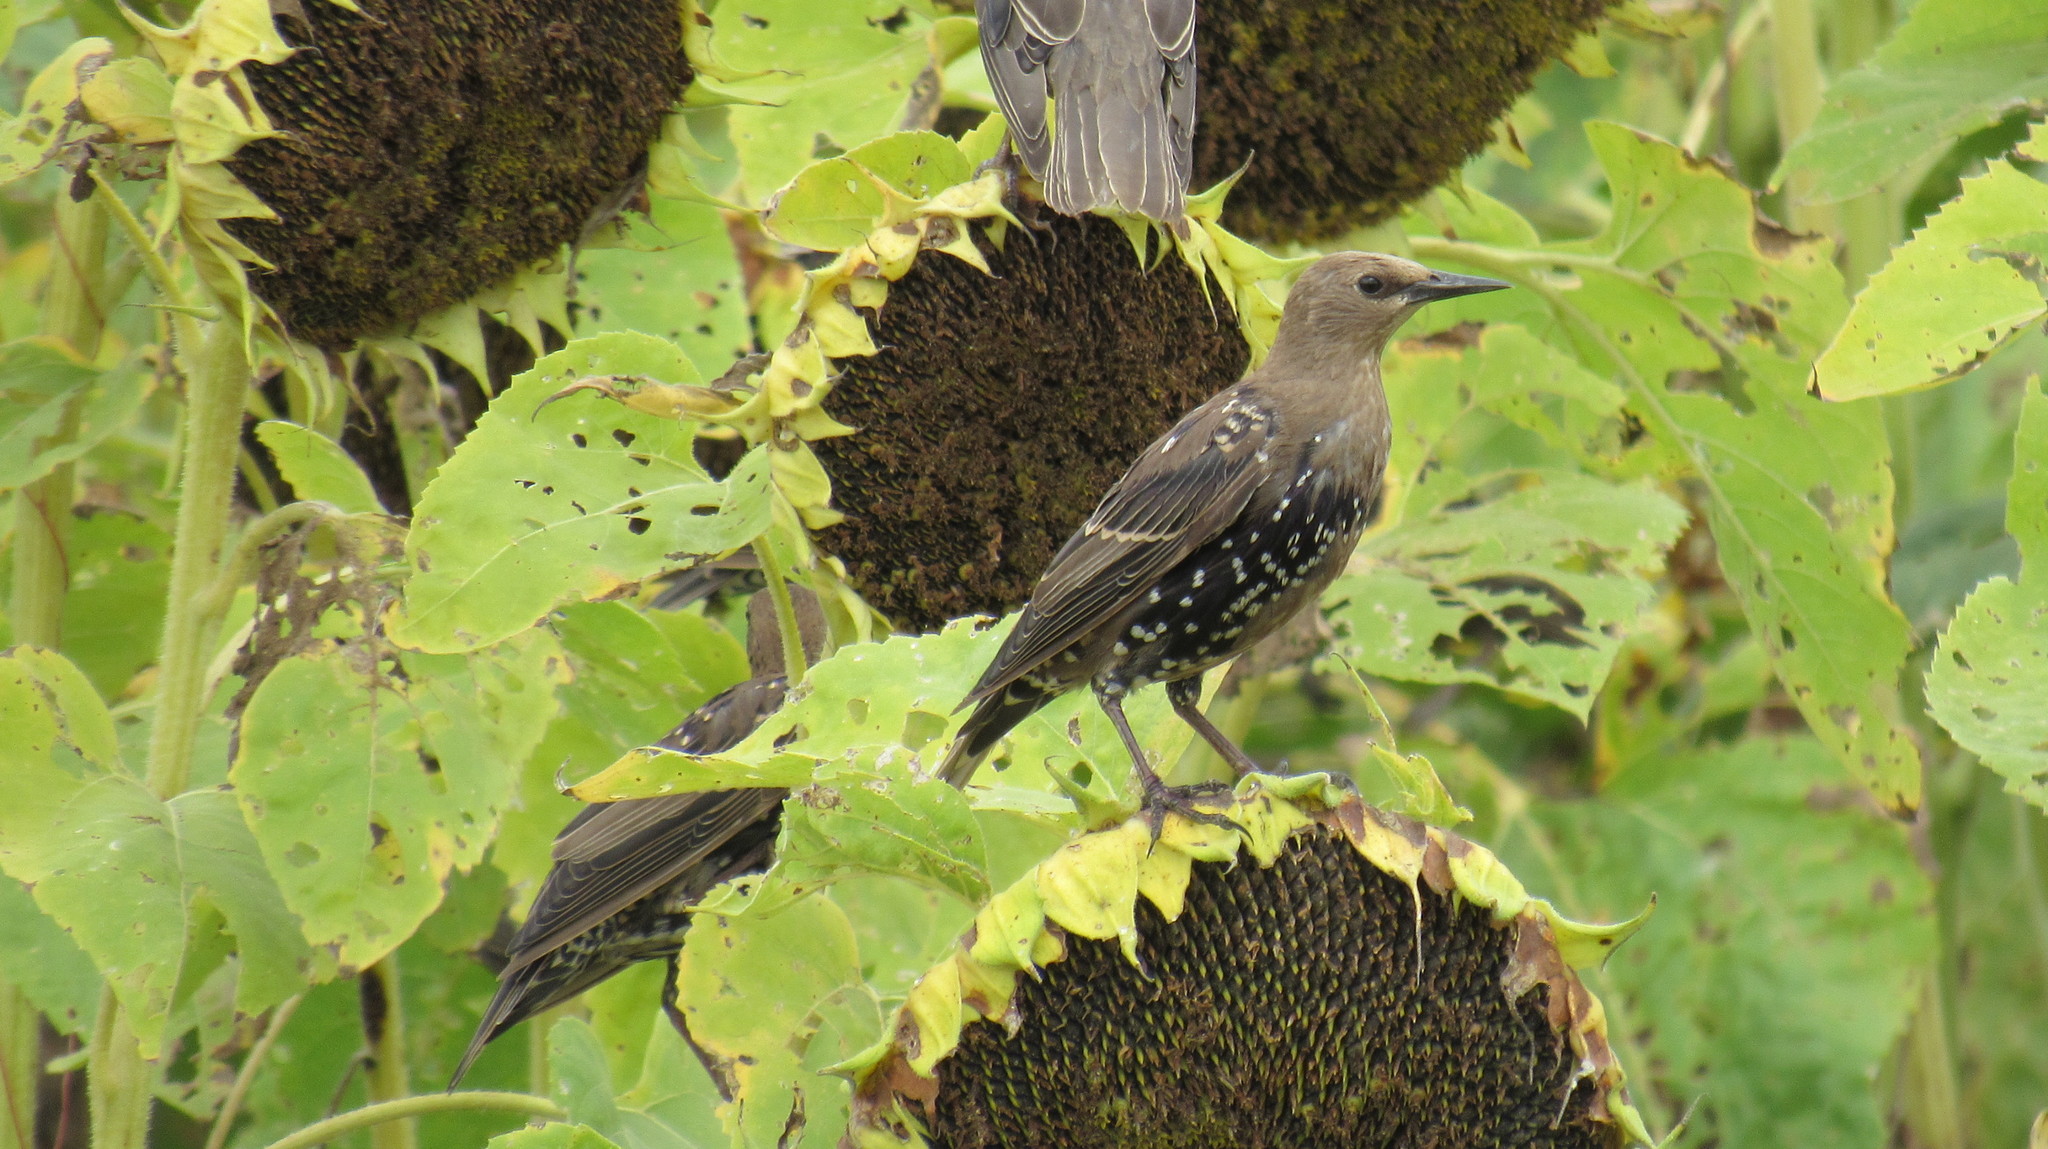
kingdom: Animalia
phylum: Chordata
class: Aves
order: Passeriformes
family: Sturnidae
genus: Sturnus
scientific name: Sturnus vulgaris
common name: Common starling
